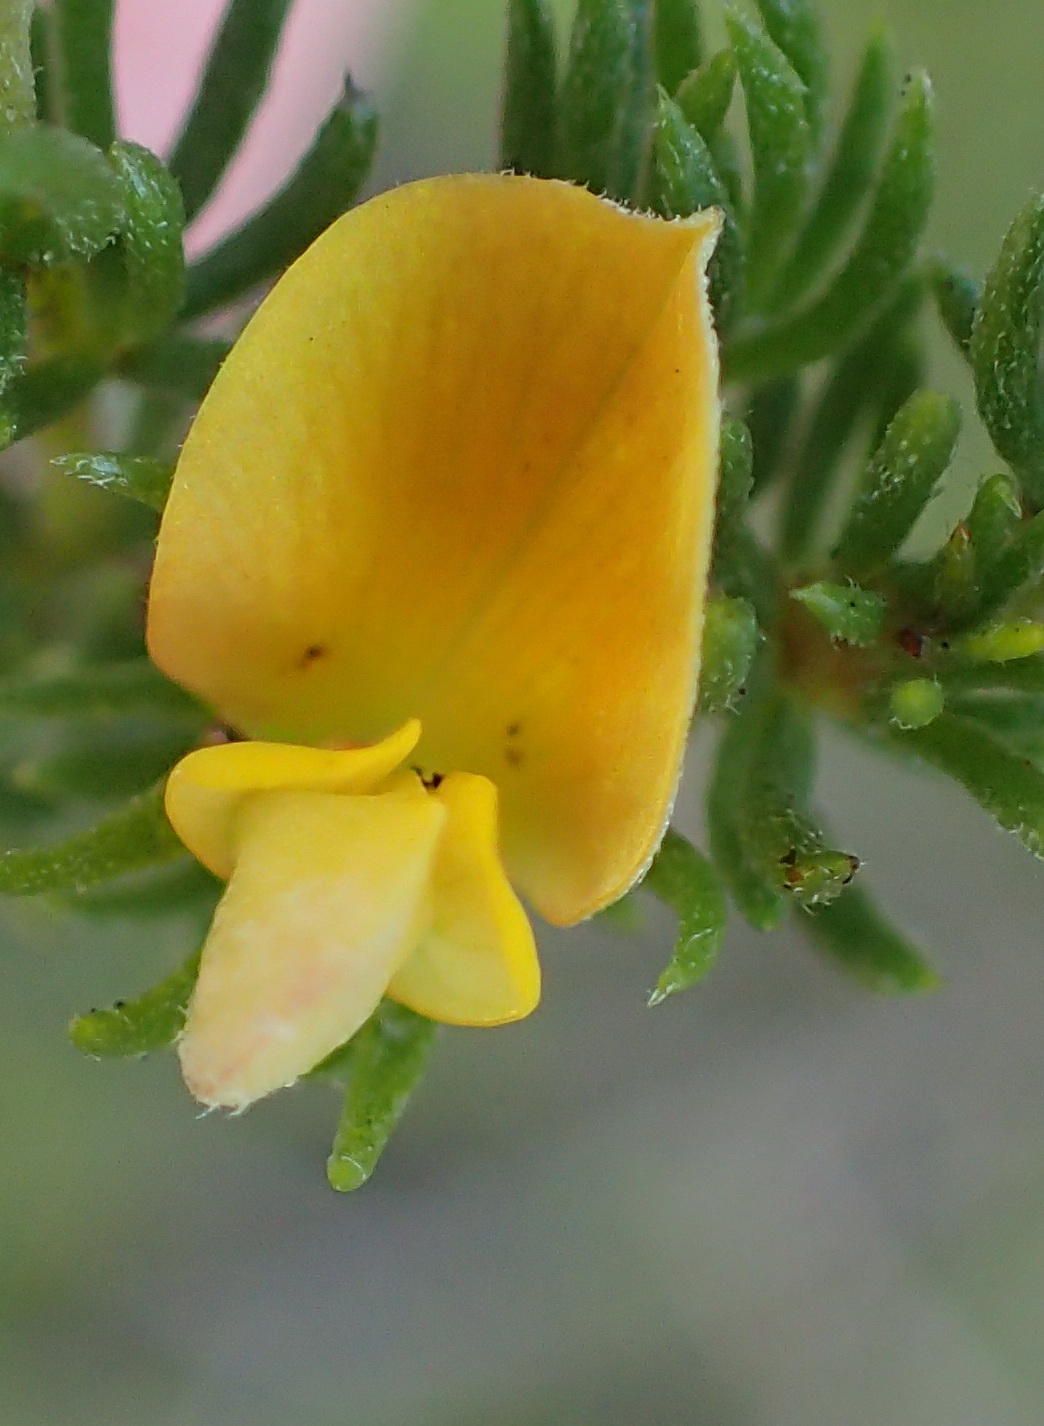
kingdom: Plantae
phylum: Tracheophyta
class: Magnoliopsida
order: Fabales
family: Fabaceae
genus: Aspalathus
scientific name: Aspalathus asparagoides
